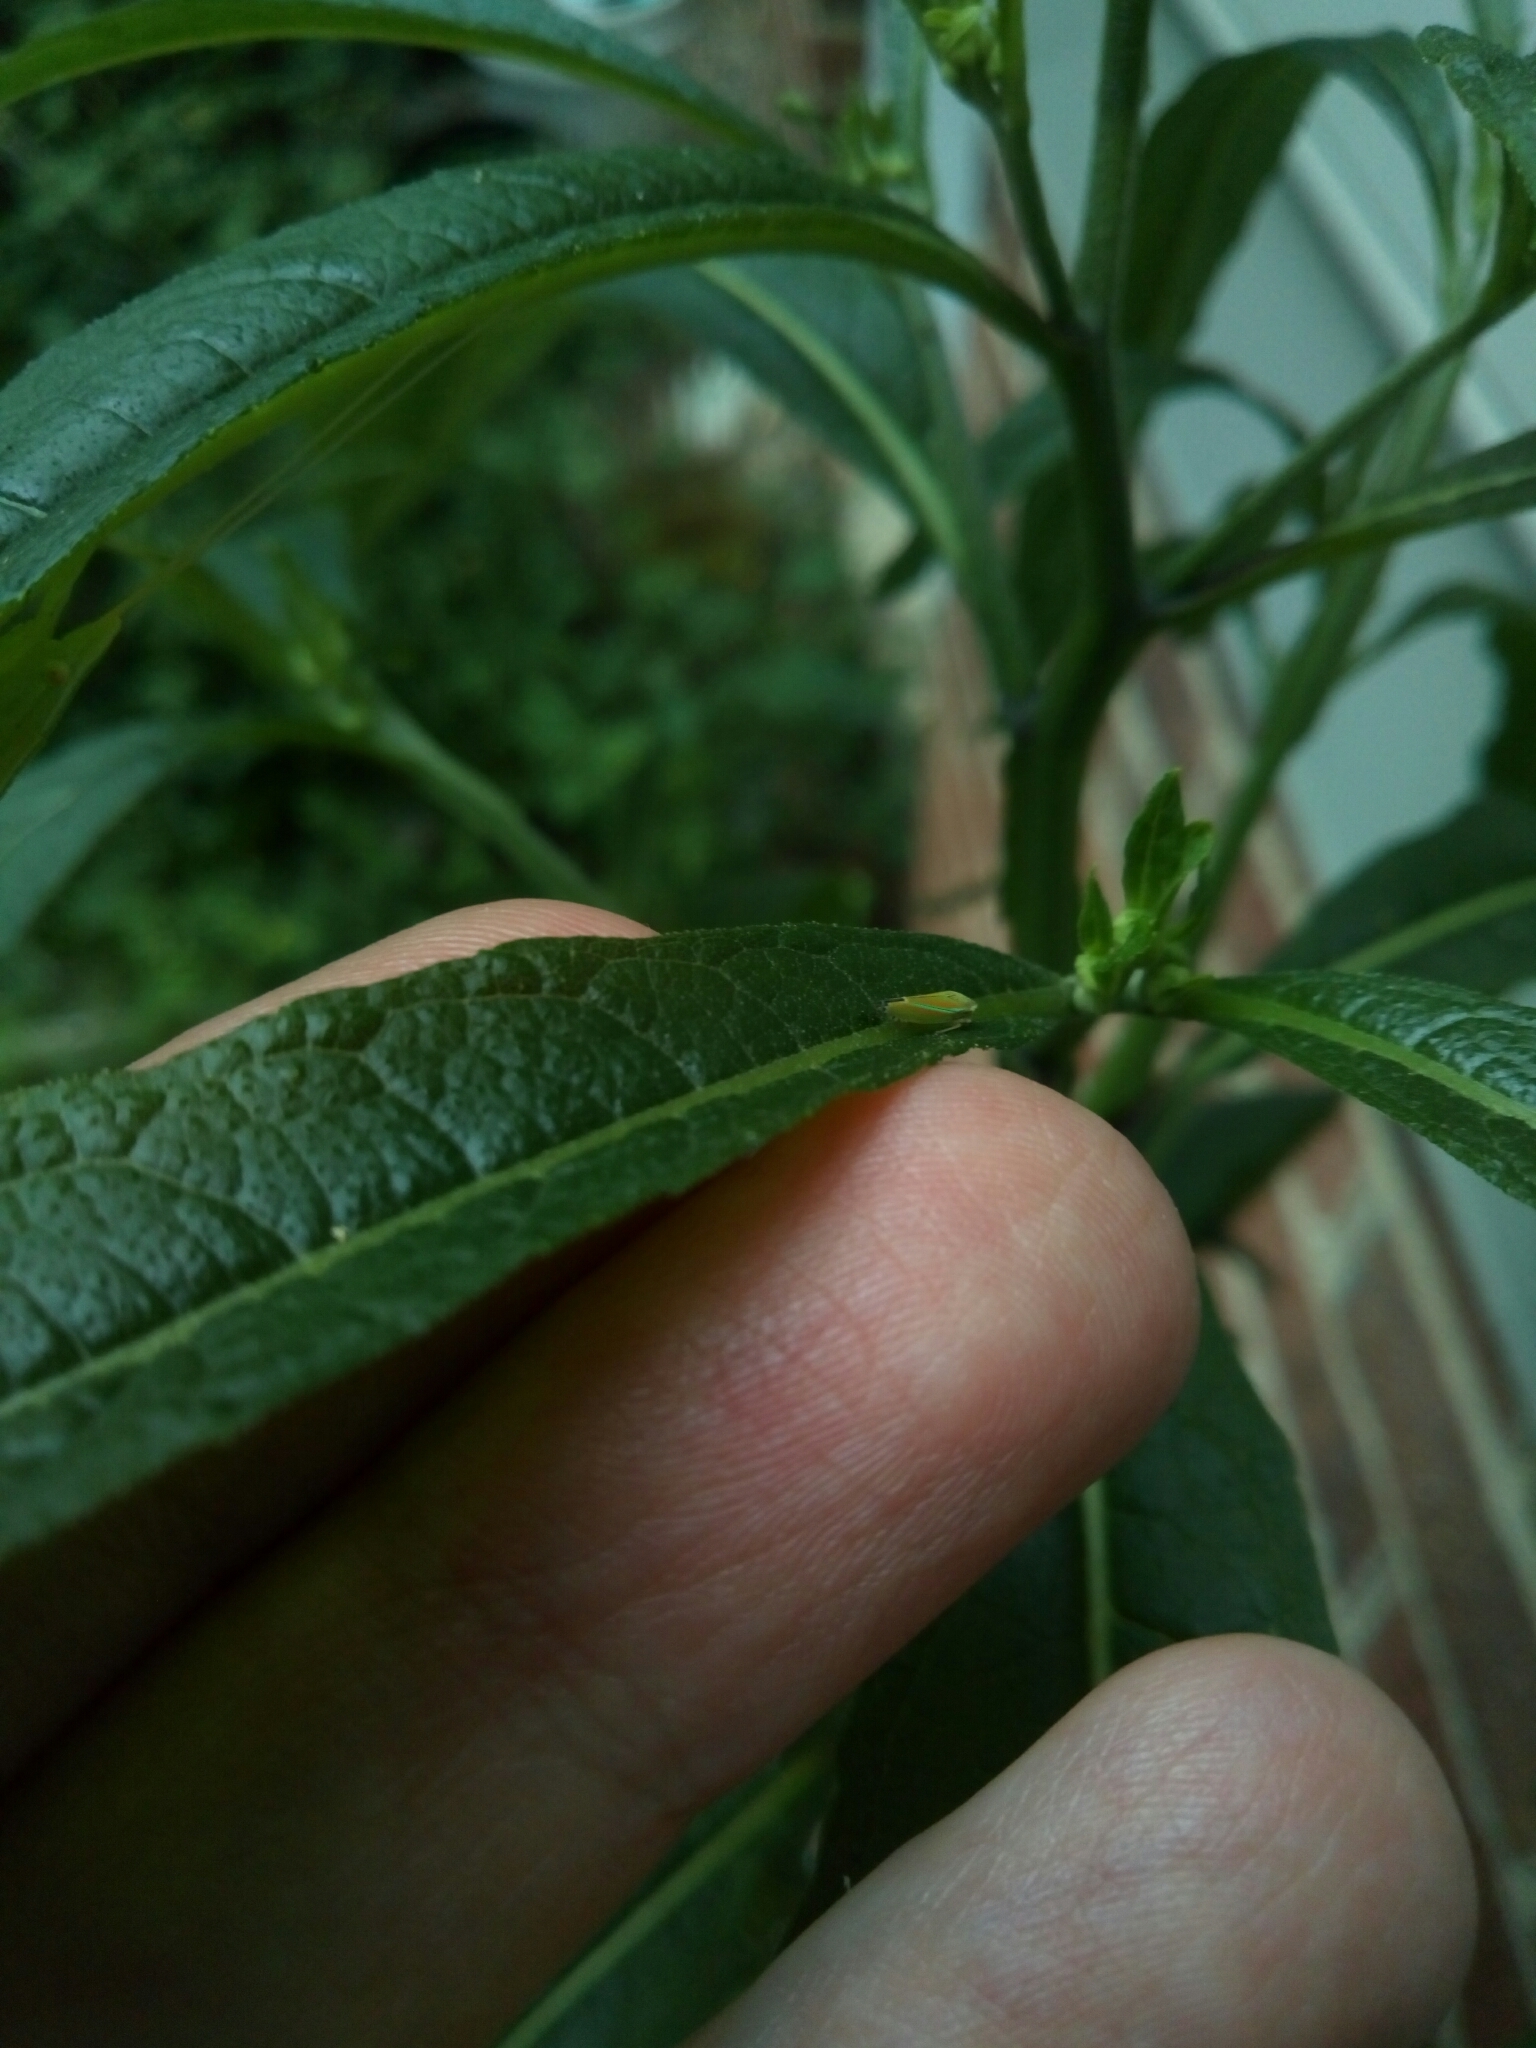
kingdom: Animalia
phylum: Arthropoda
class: Insecta
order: Hemiptera
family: Cicadellidae
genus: Graphocephala
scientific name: Graphocephala versuta
